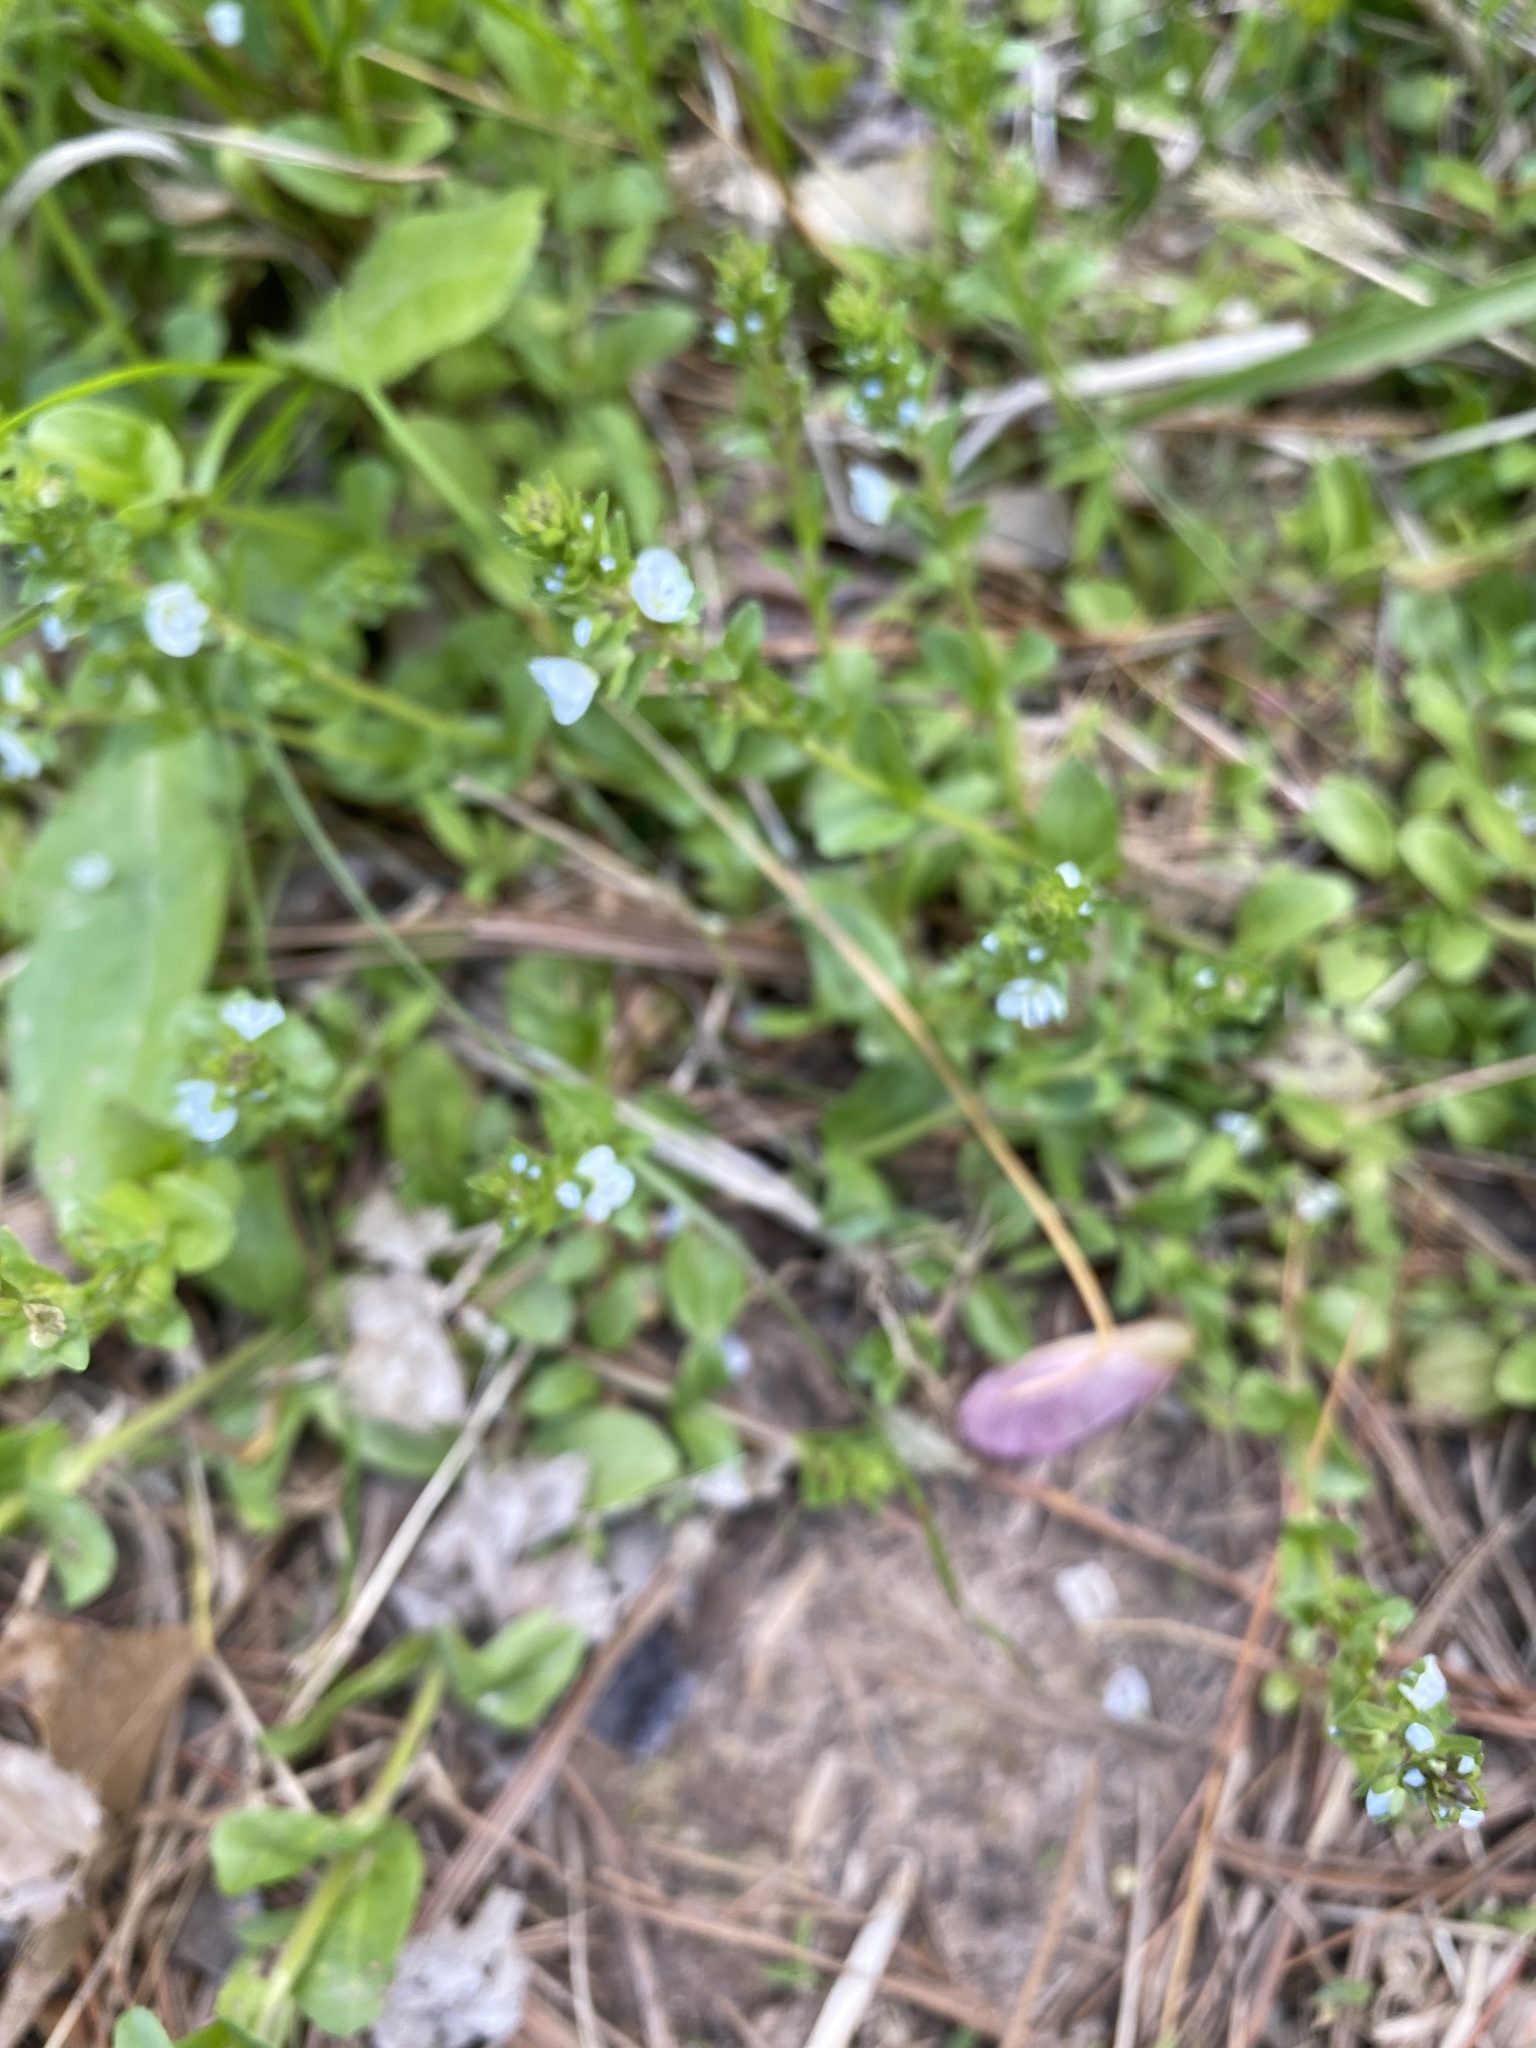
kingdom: Plantae
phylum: Tracheophyta
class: Magnoliopsida
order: Lamiales
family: Plantaginaceae
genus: Veronica
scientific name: Veronica serpyllifolia
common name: Thyme-leaved speedwell
